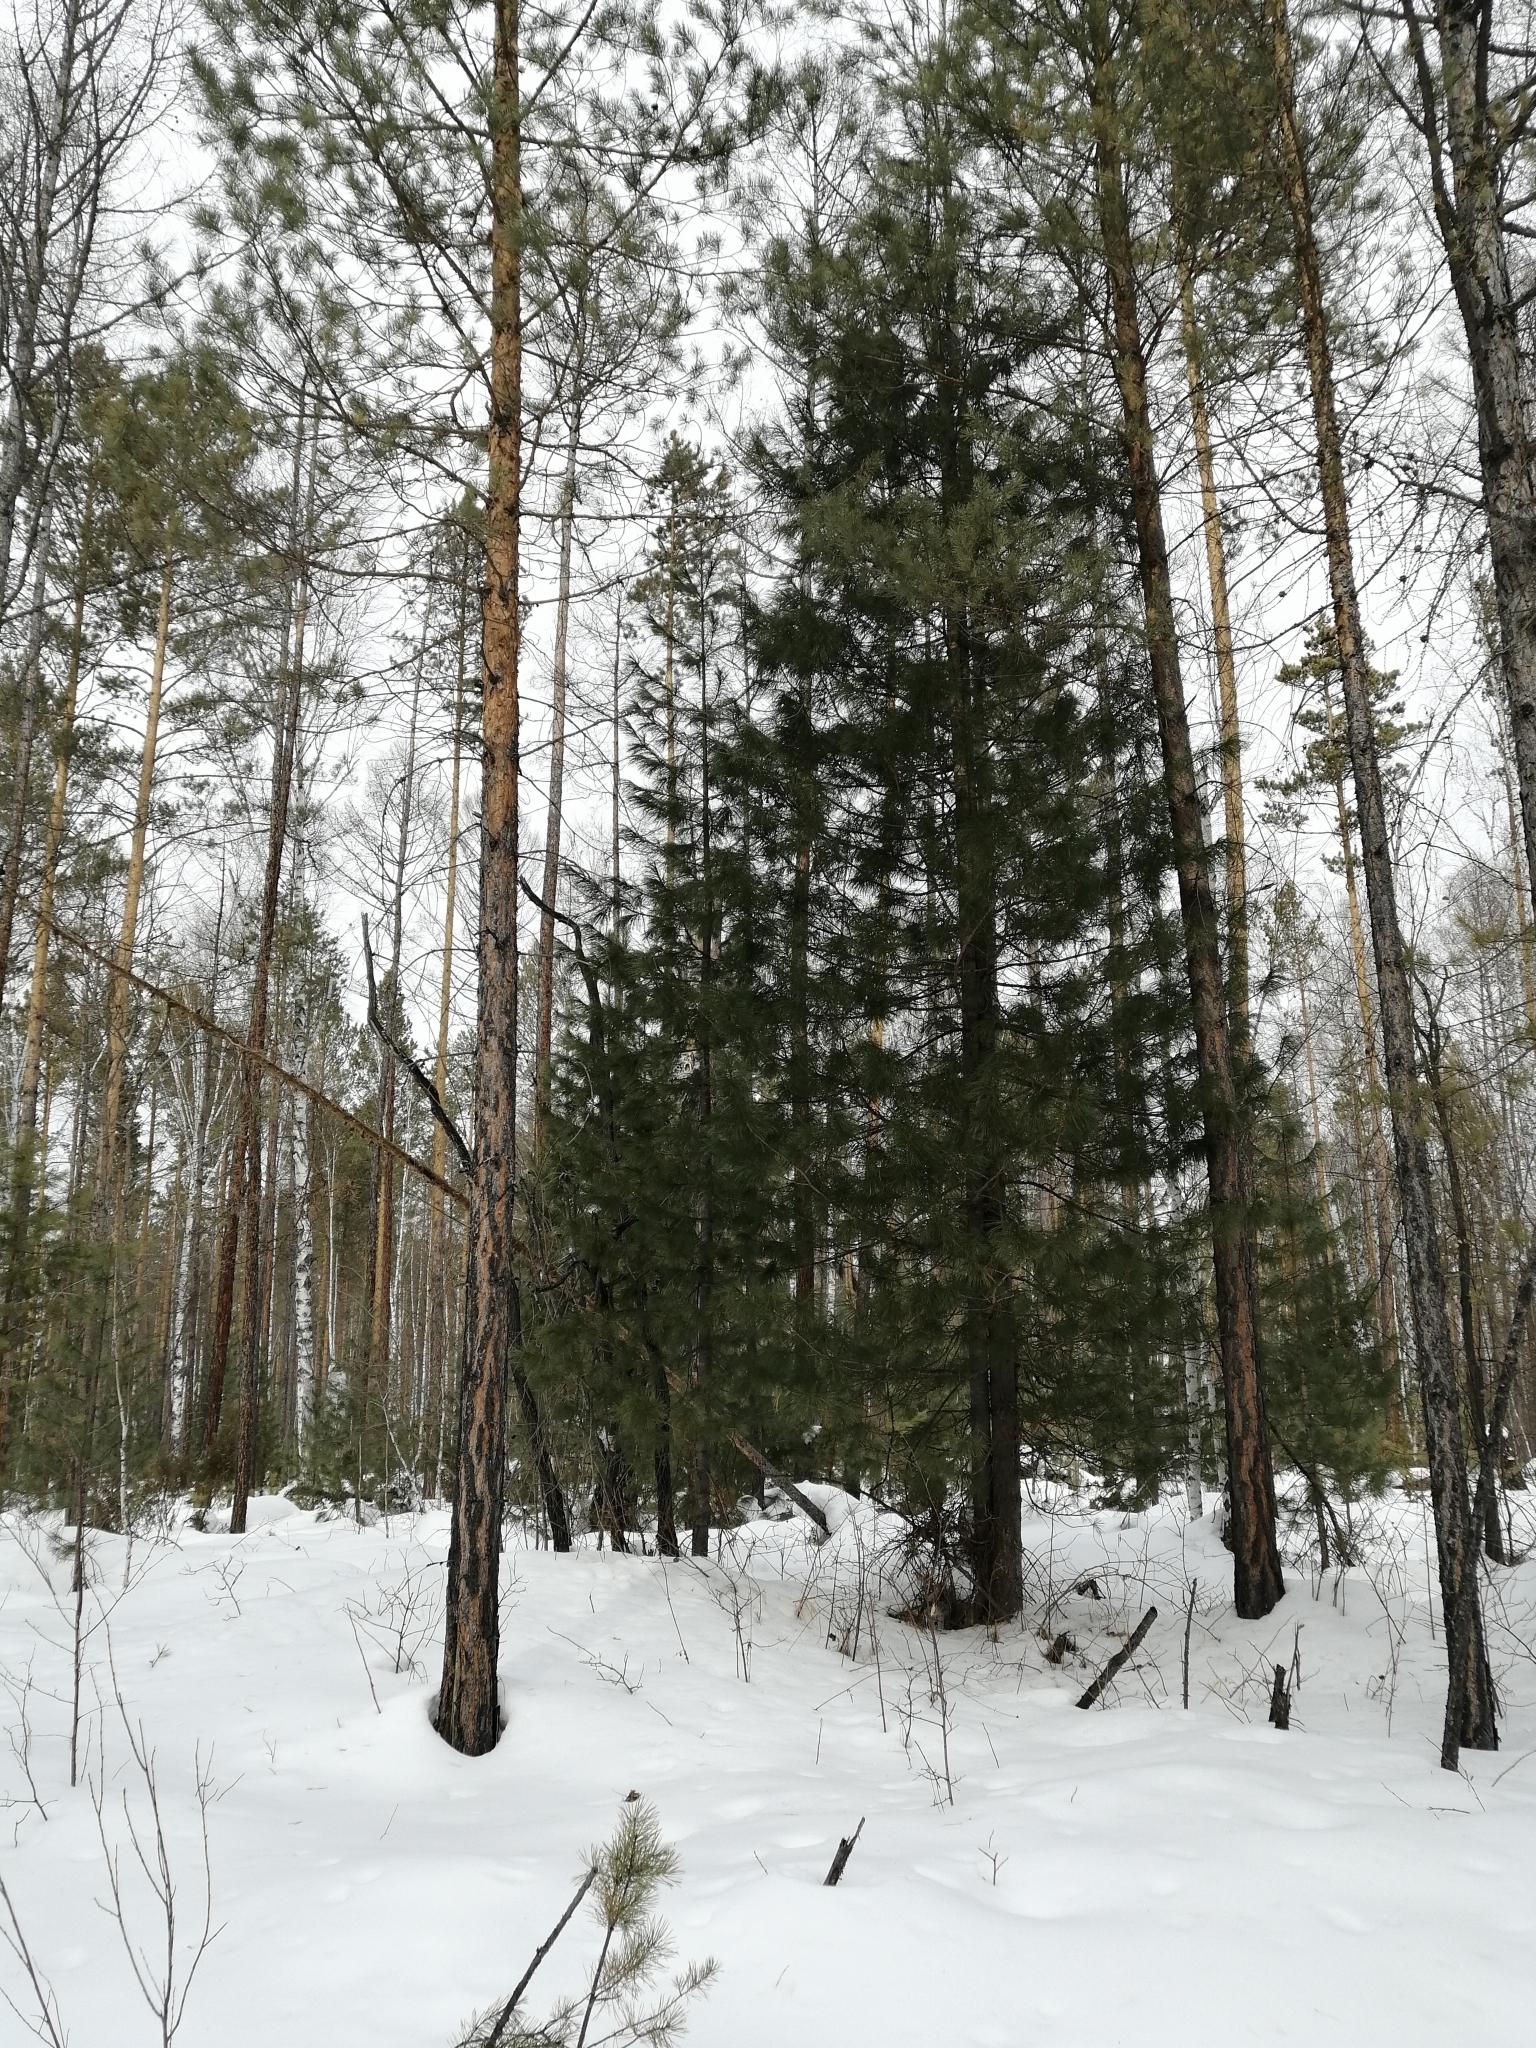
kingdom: Plantae
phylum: Tracheophyta
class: Pinopsida
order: Pinales
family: Pinaceae
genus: Pinus
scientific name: Pinus sibirica
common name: Siberian pine
